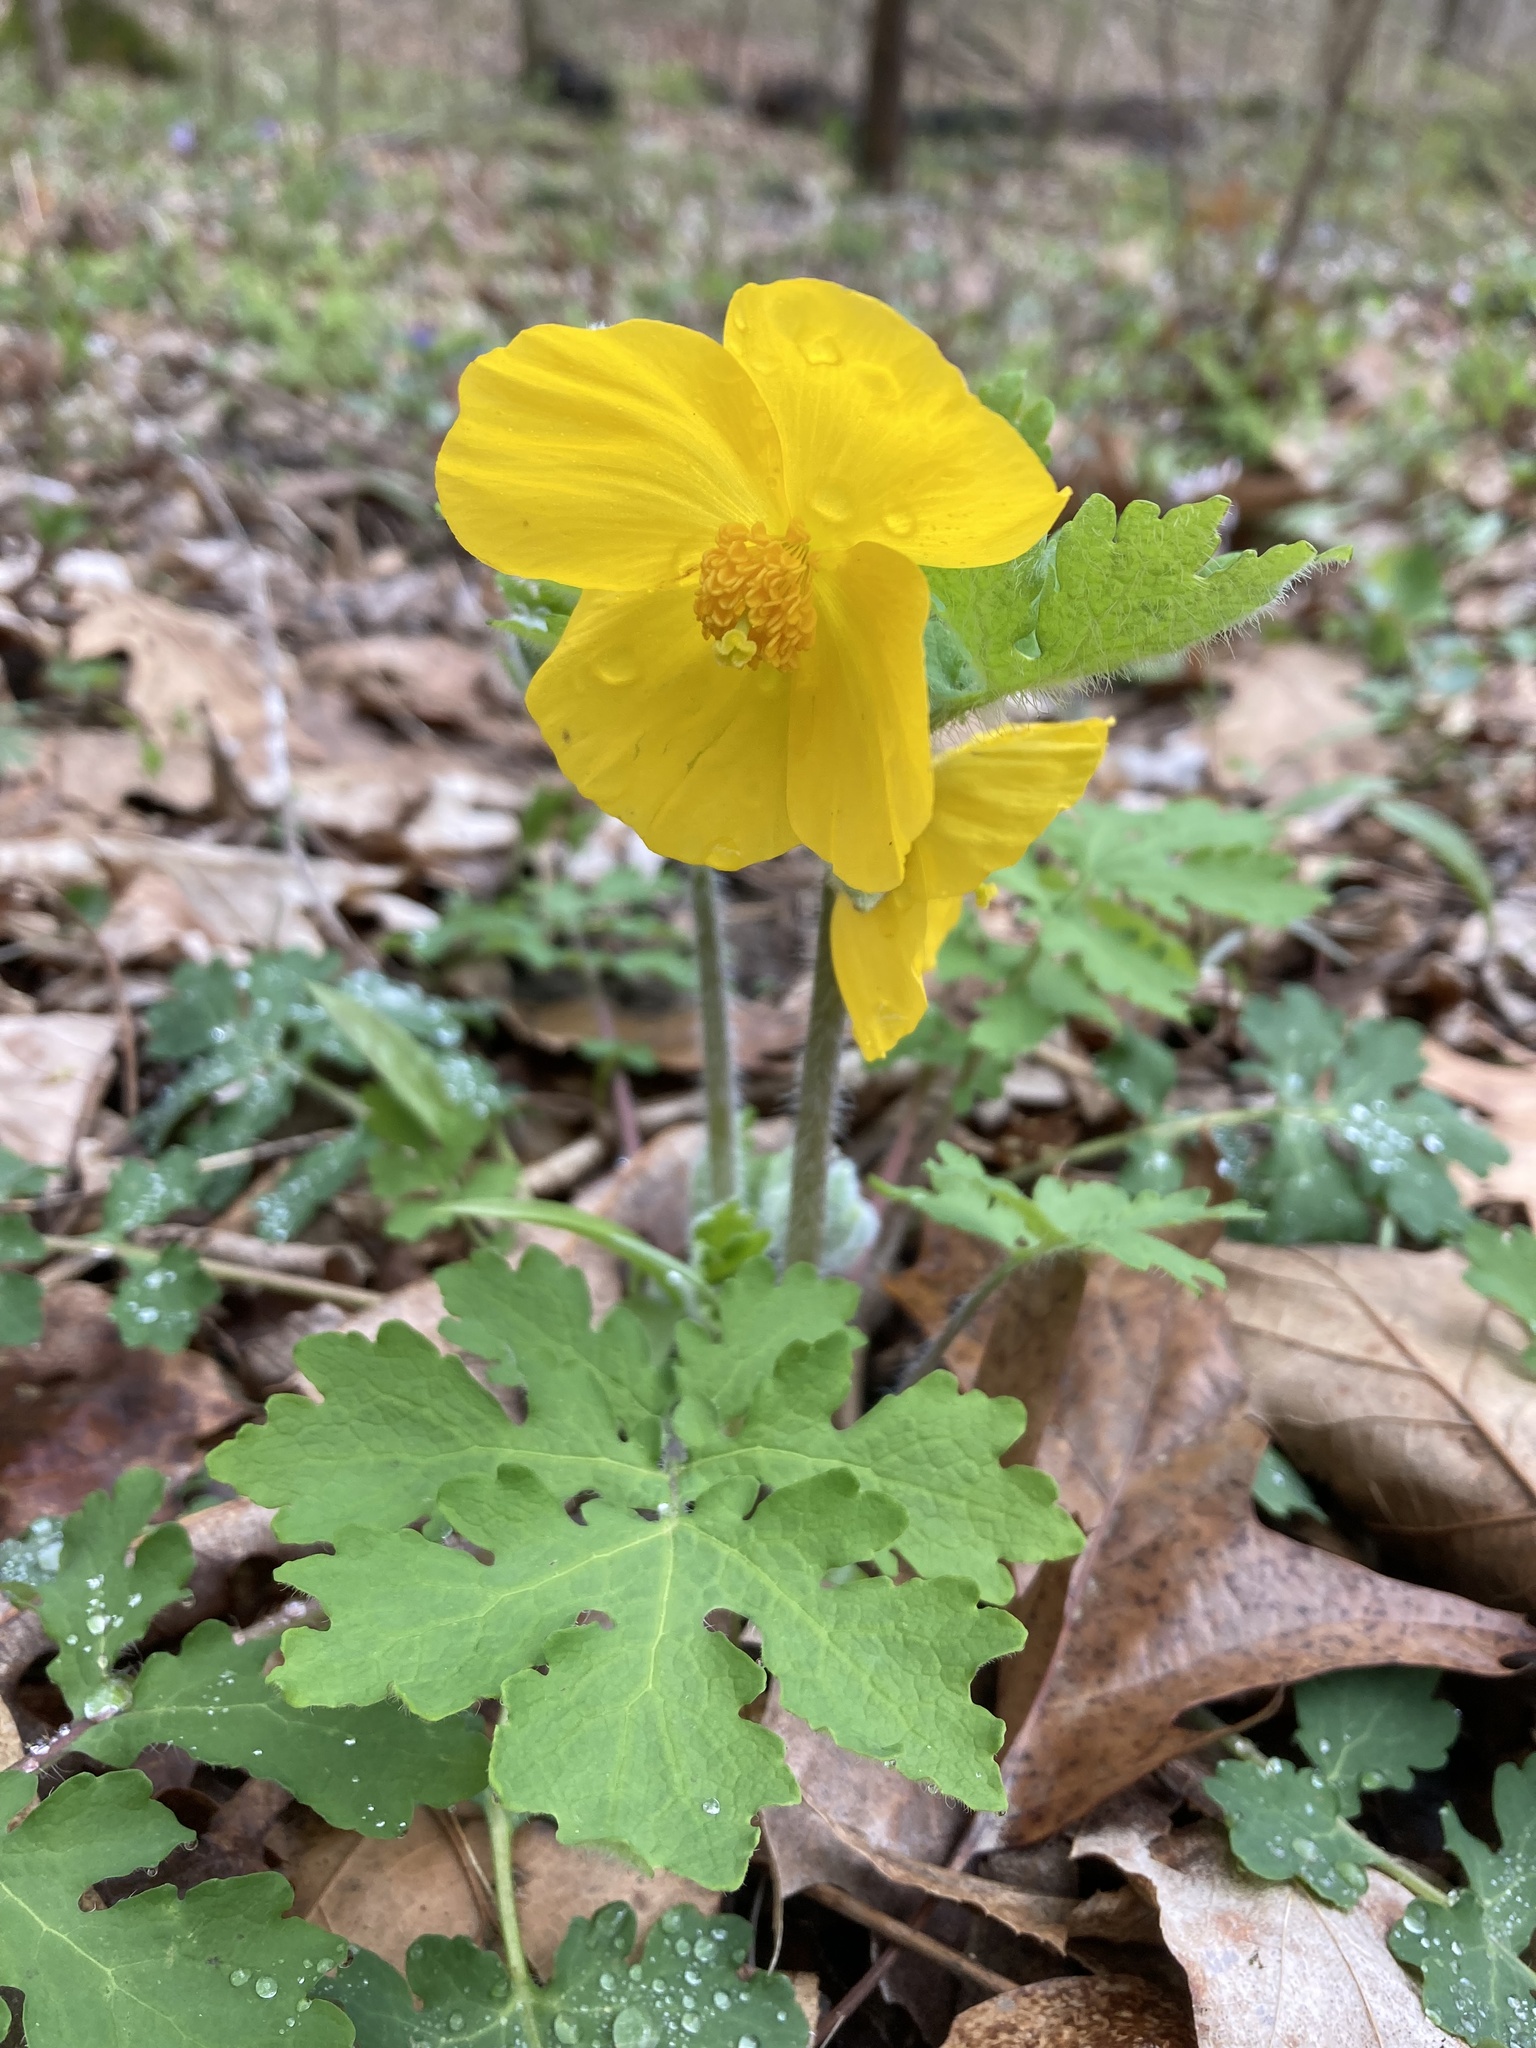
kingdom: Plantae
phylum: Tracheophyta
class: Magnoliopsida
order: Ranunculales
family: Papaveraceae
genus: Stylophorum
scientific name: Stylophorum diphyllum
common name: Celandine poppy
